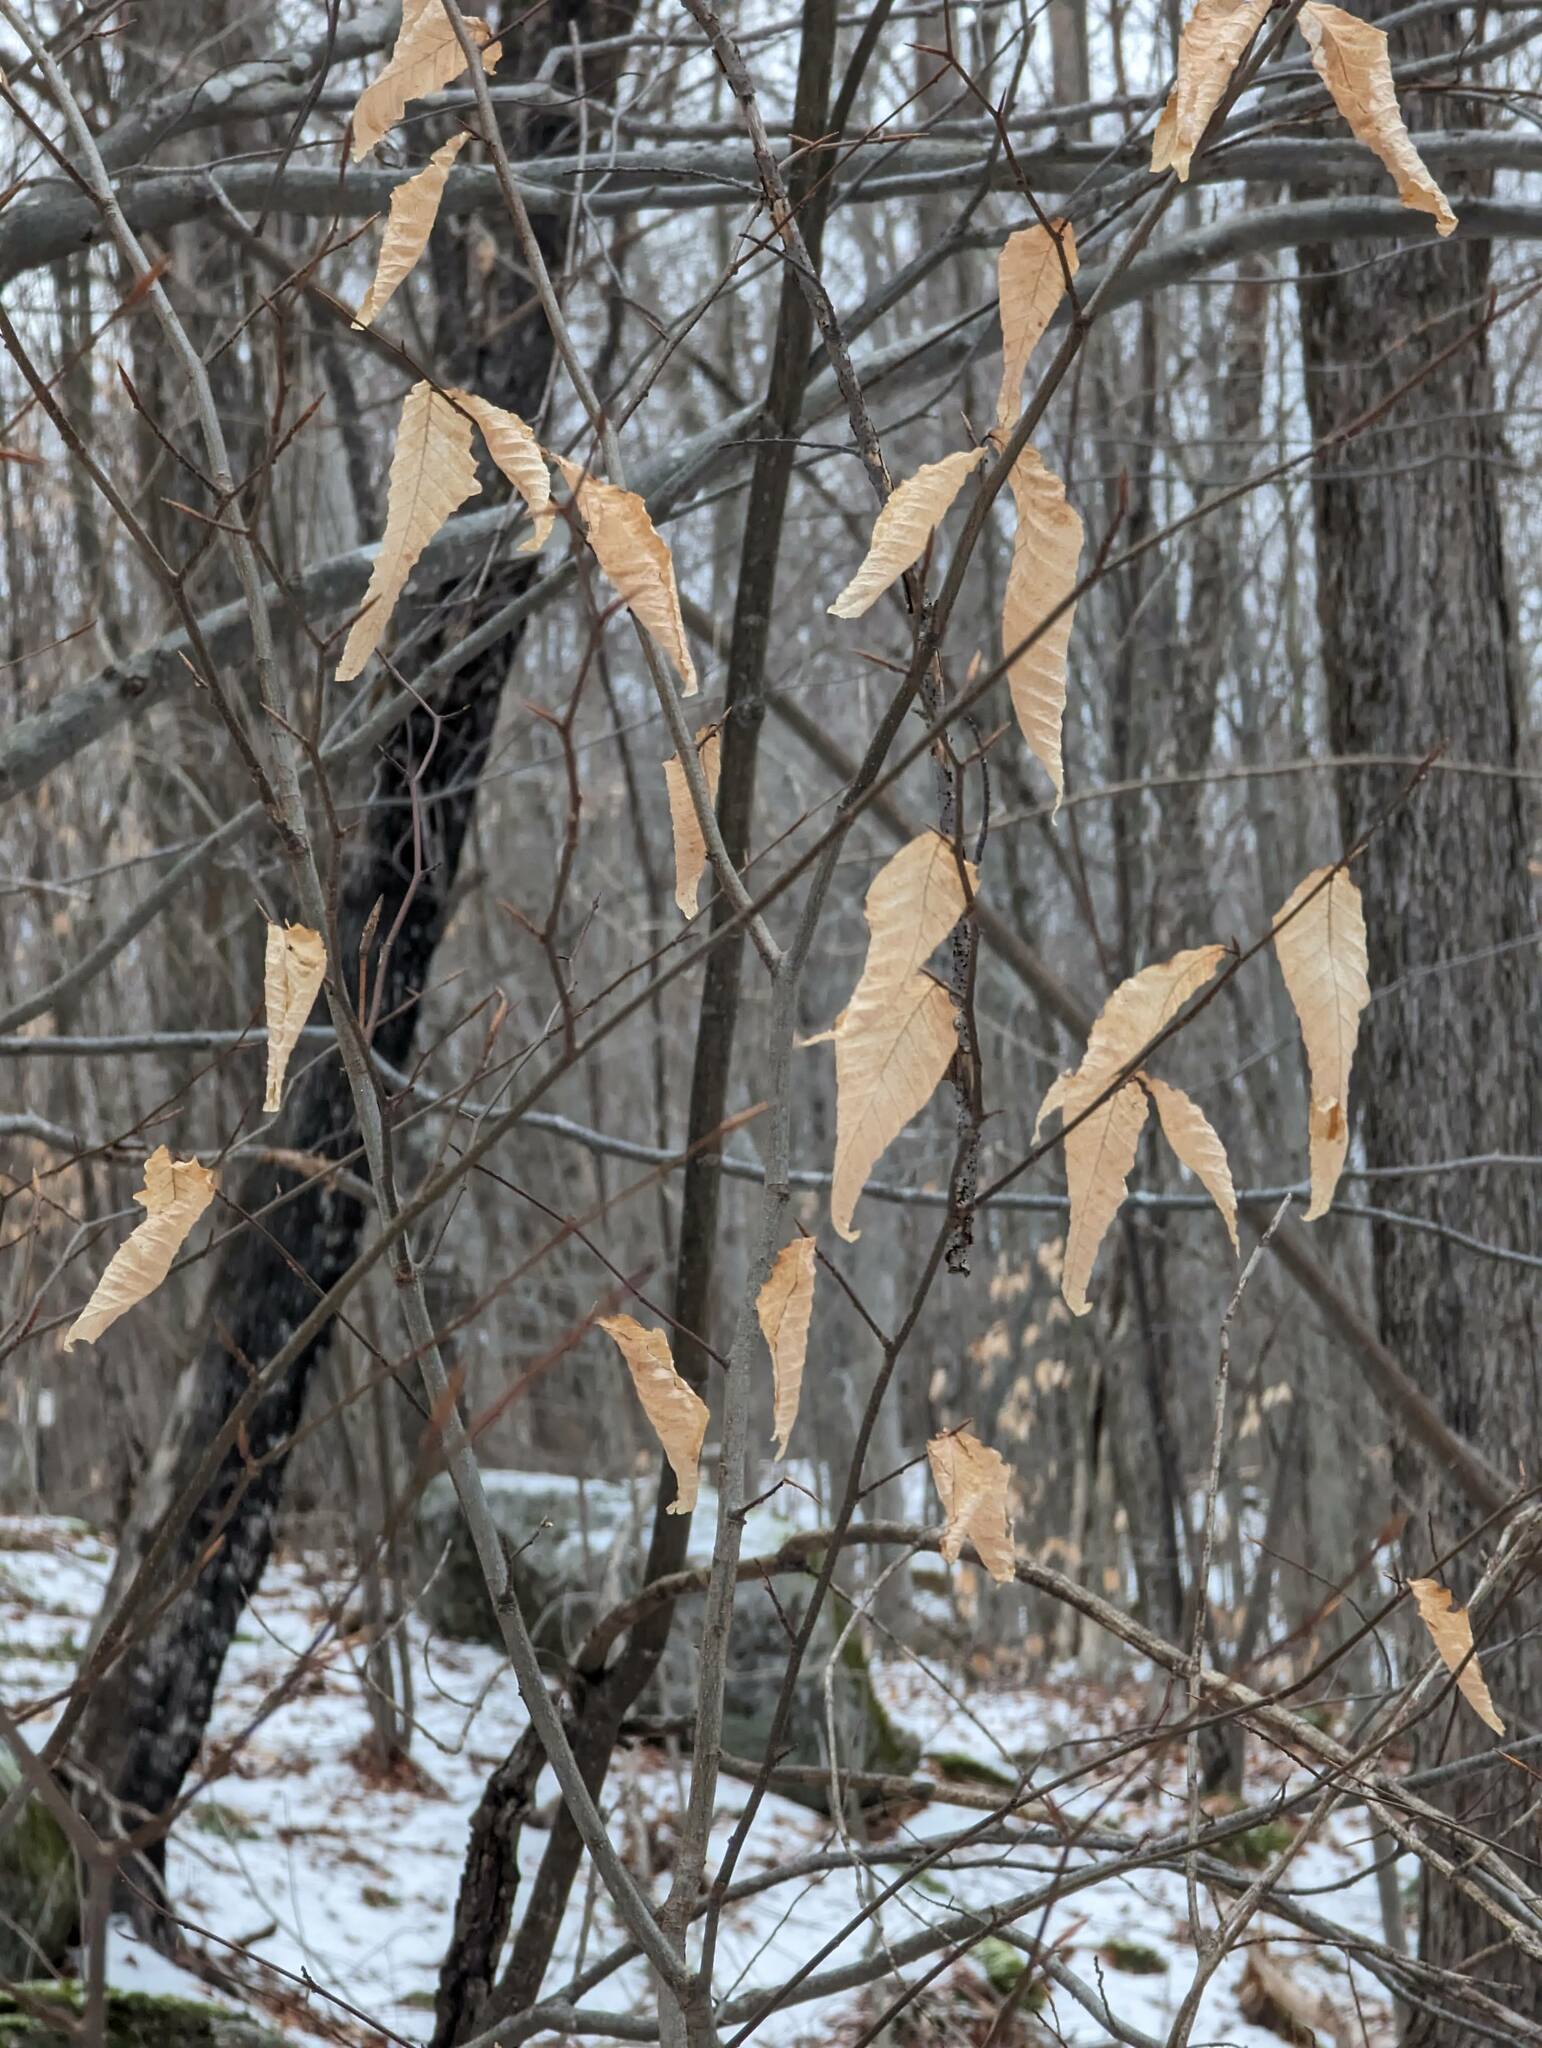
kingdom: Plantae
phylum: Tracheophyta
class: Magnoliopsida
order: Fagales
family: Fagaceae
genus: Fagus
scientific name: Fagus grandifolia
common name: American beech
